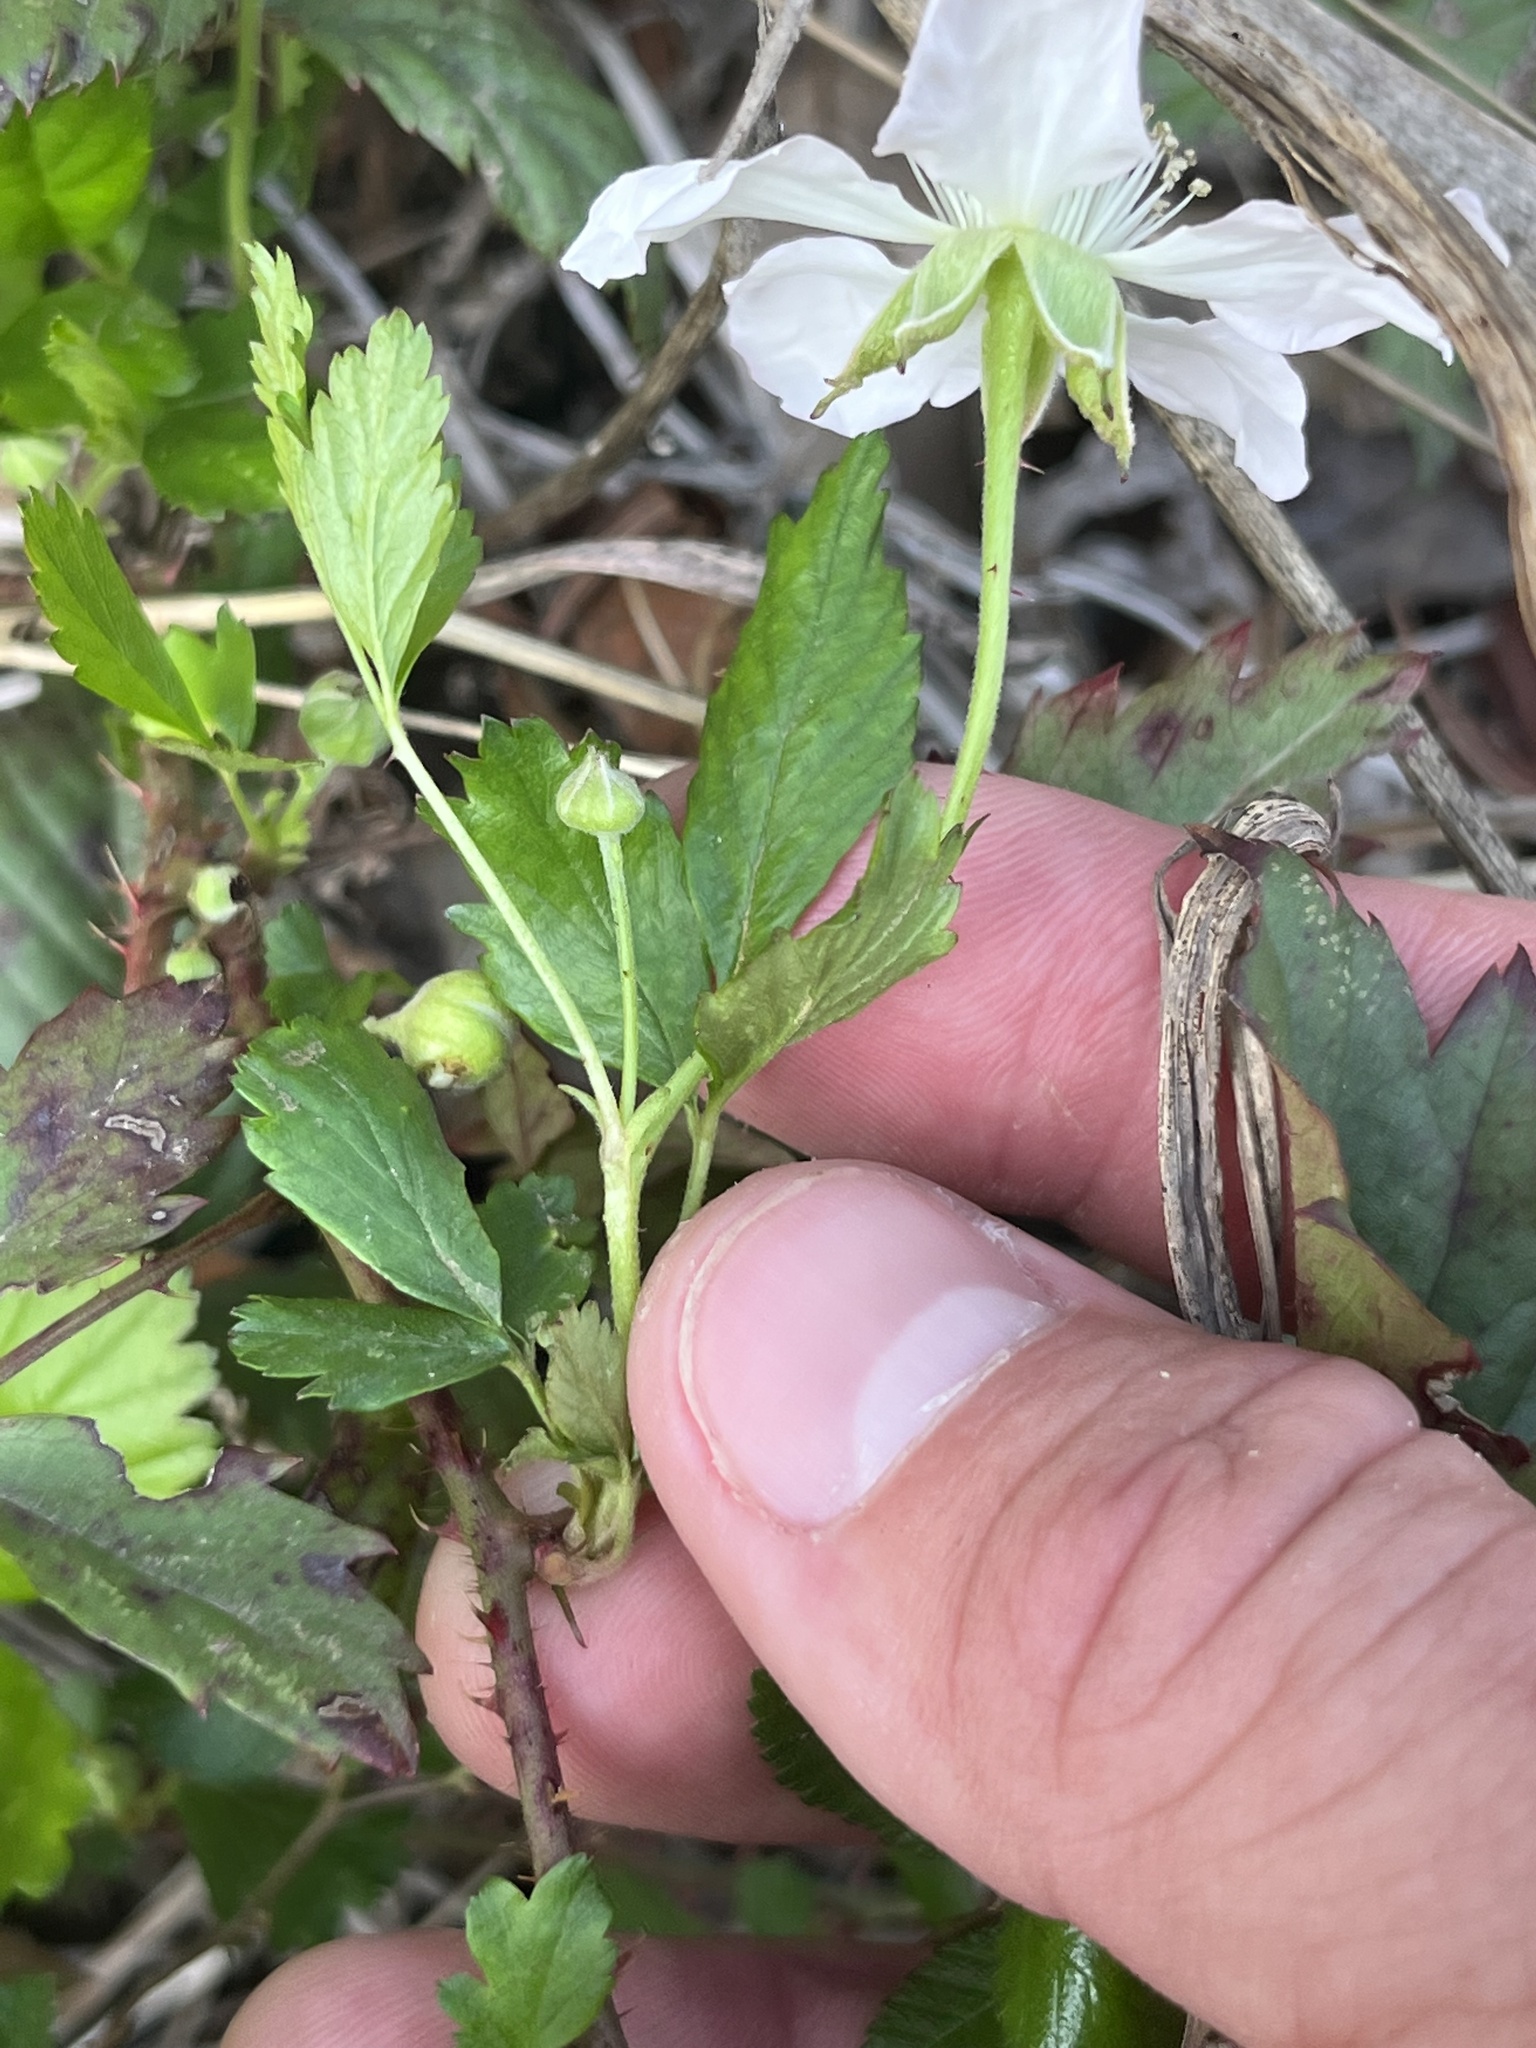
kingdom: Plantae
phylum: Tracheophyta
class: Magnoliopsida
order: Rosales
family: Rosaceae
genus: Rubus
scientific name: Rubus trivialis
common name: Southern dewberry
